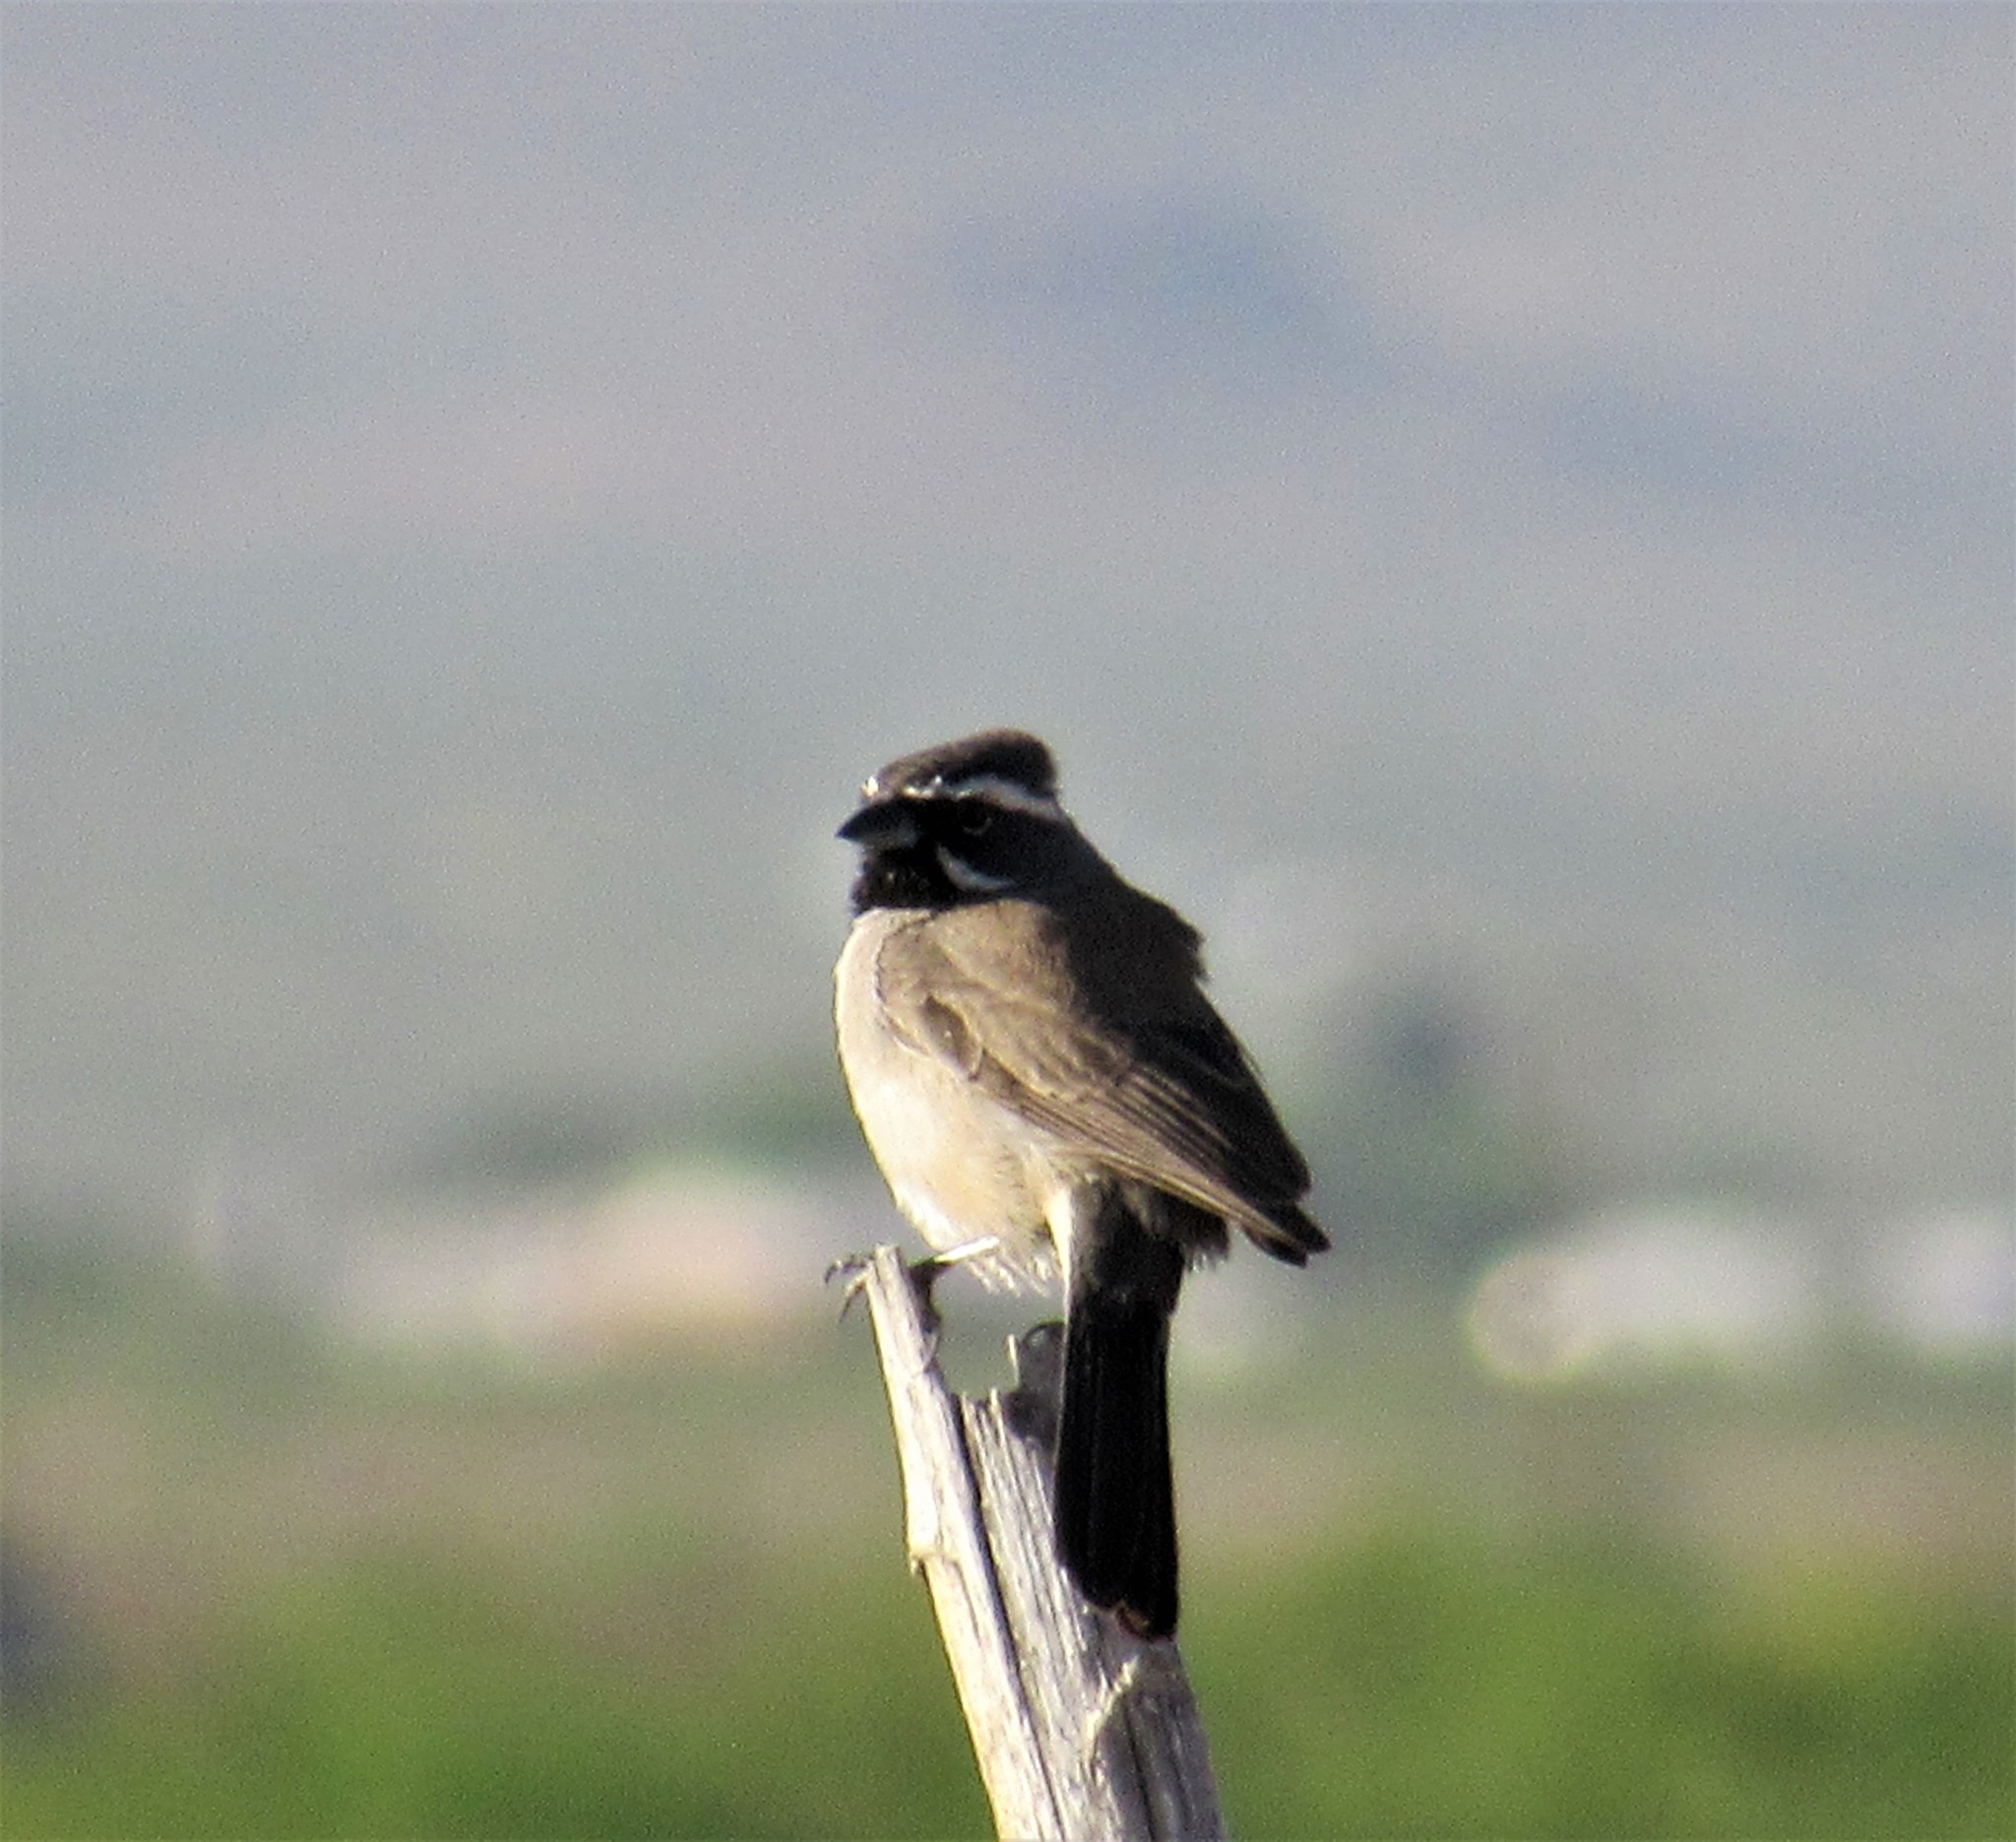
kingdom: Animalia
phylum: Chordata
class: Aves
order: Passeriformes
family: Passerellidae
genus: Amphispiza
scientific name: Amphispiza bilineata
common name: Black-throated sparrow
